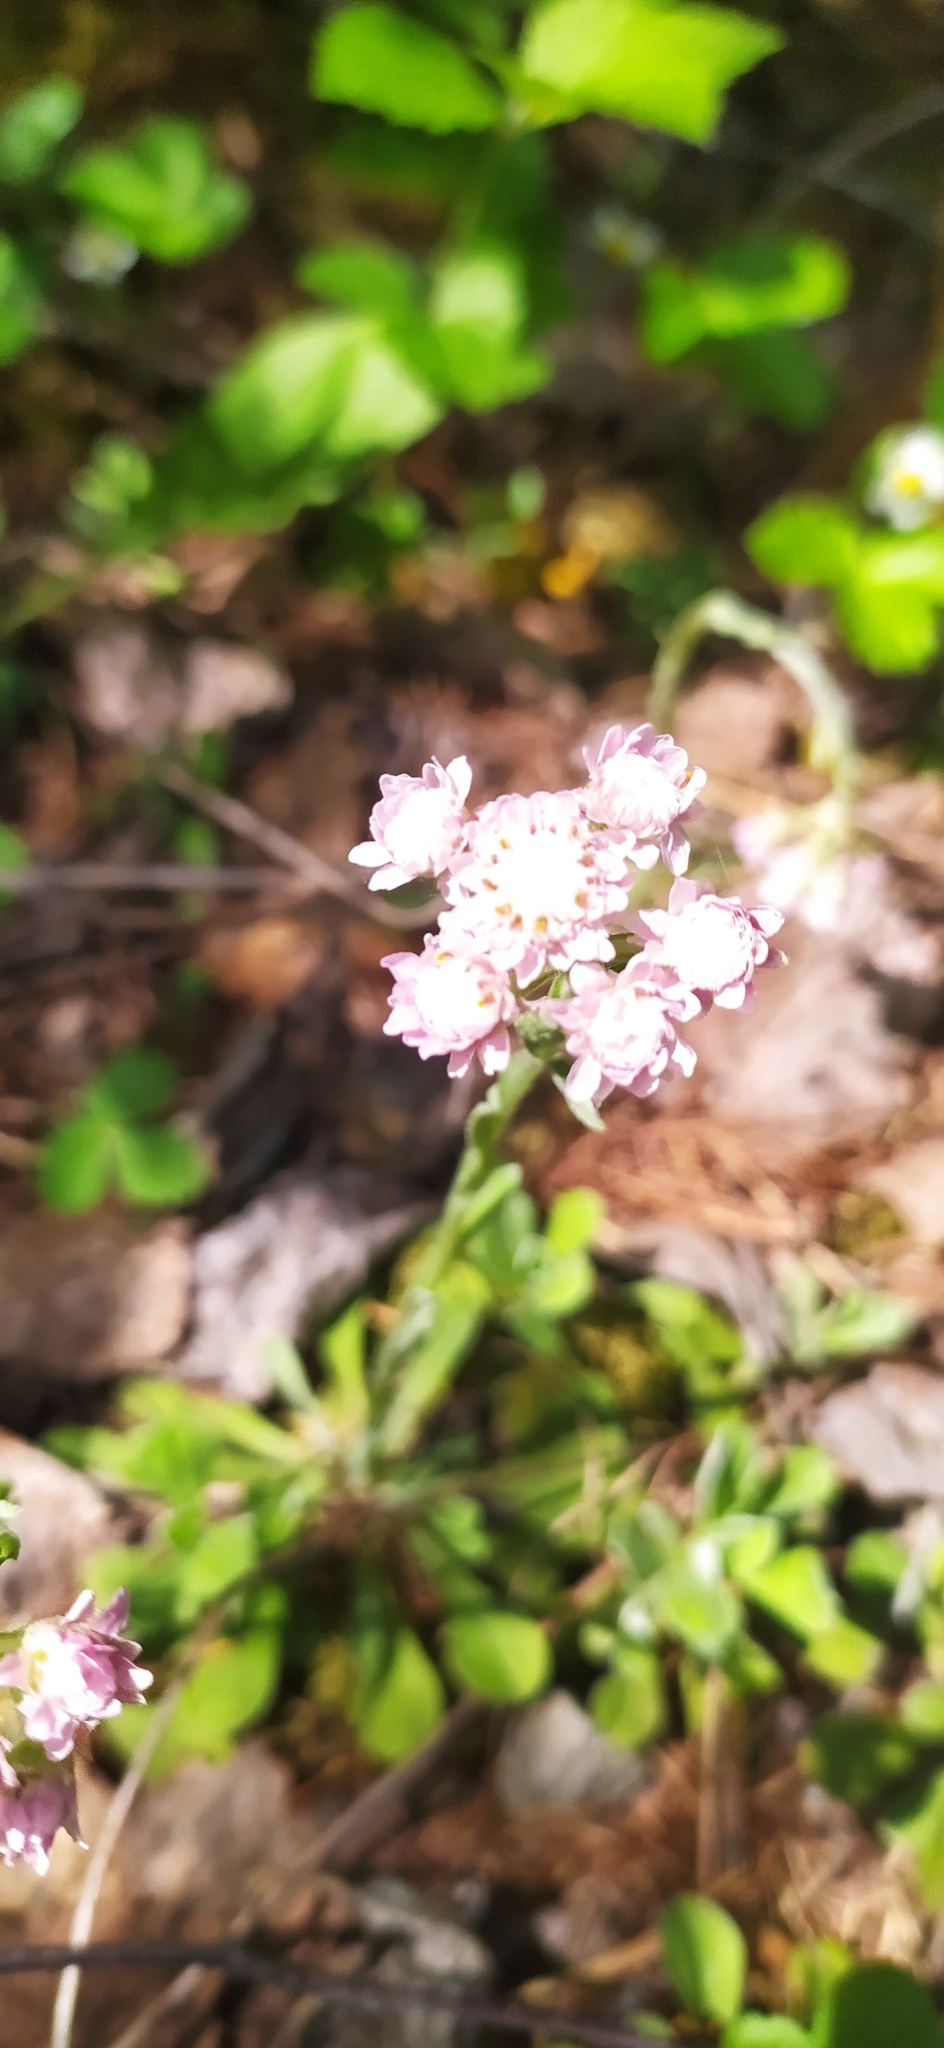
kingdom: Plantae
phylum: Tracheophyta
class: Magnoliopsida
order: Asterales
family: Asteraceae
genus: Antennaria
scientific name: Antennaria dioica
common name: Mountain everlasting
